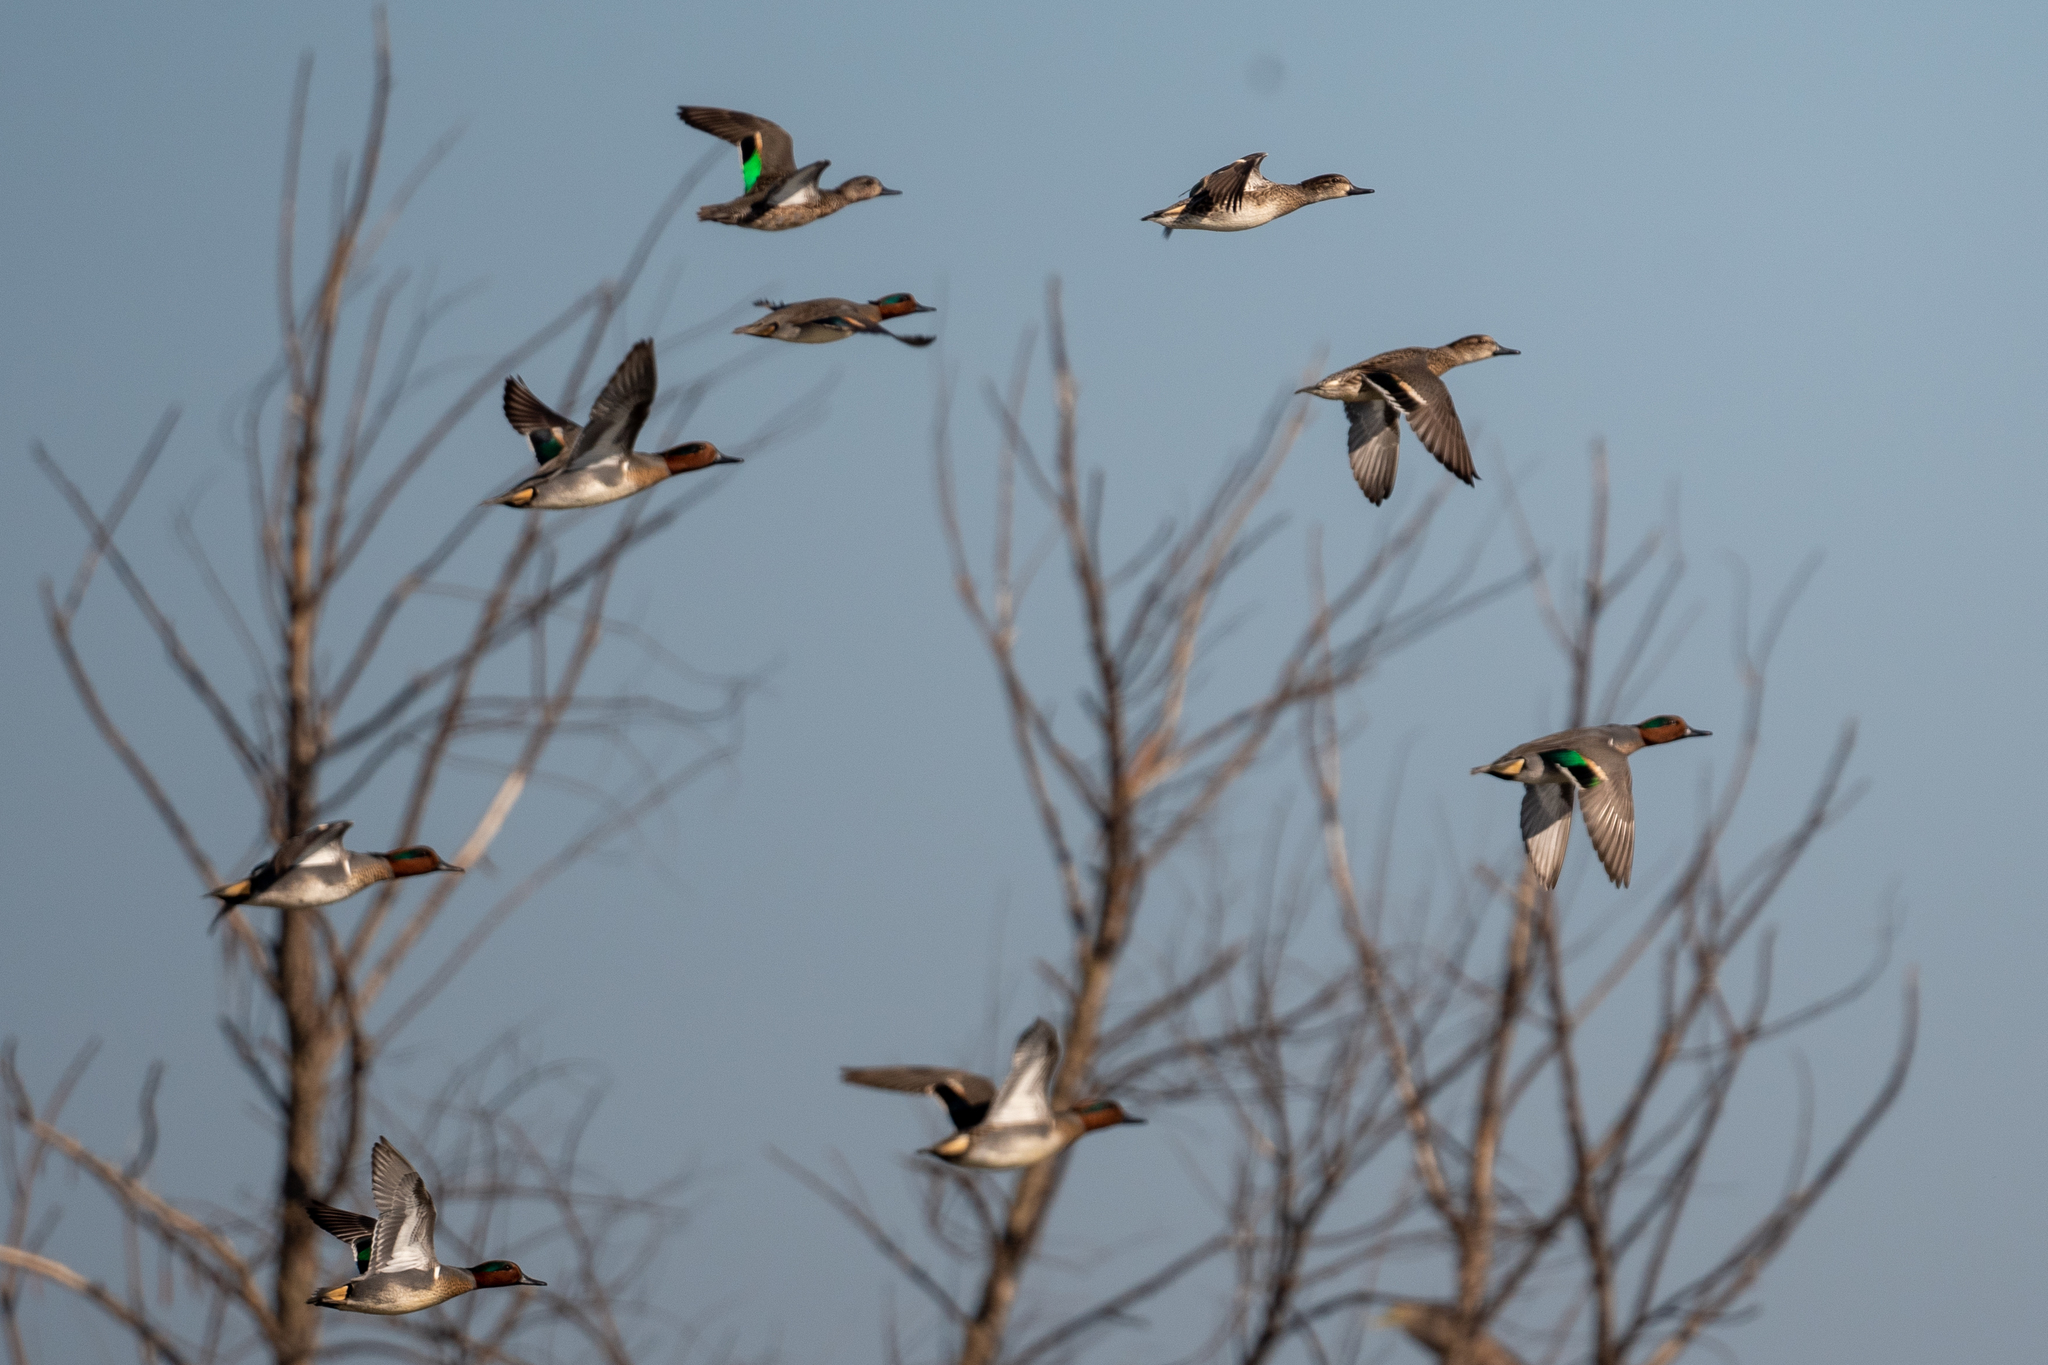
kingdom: Animalia
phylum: Chordata
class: Aves
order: Anseriformes
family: Anatidae
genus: Anas
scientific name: Anas crecca
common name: Eurasian teal
